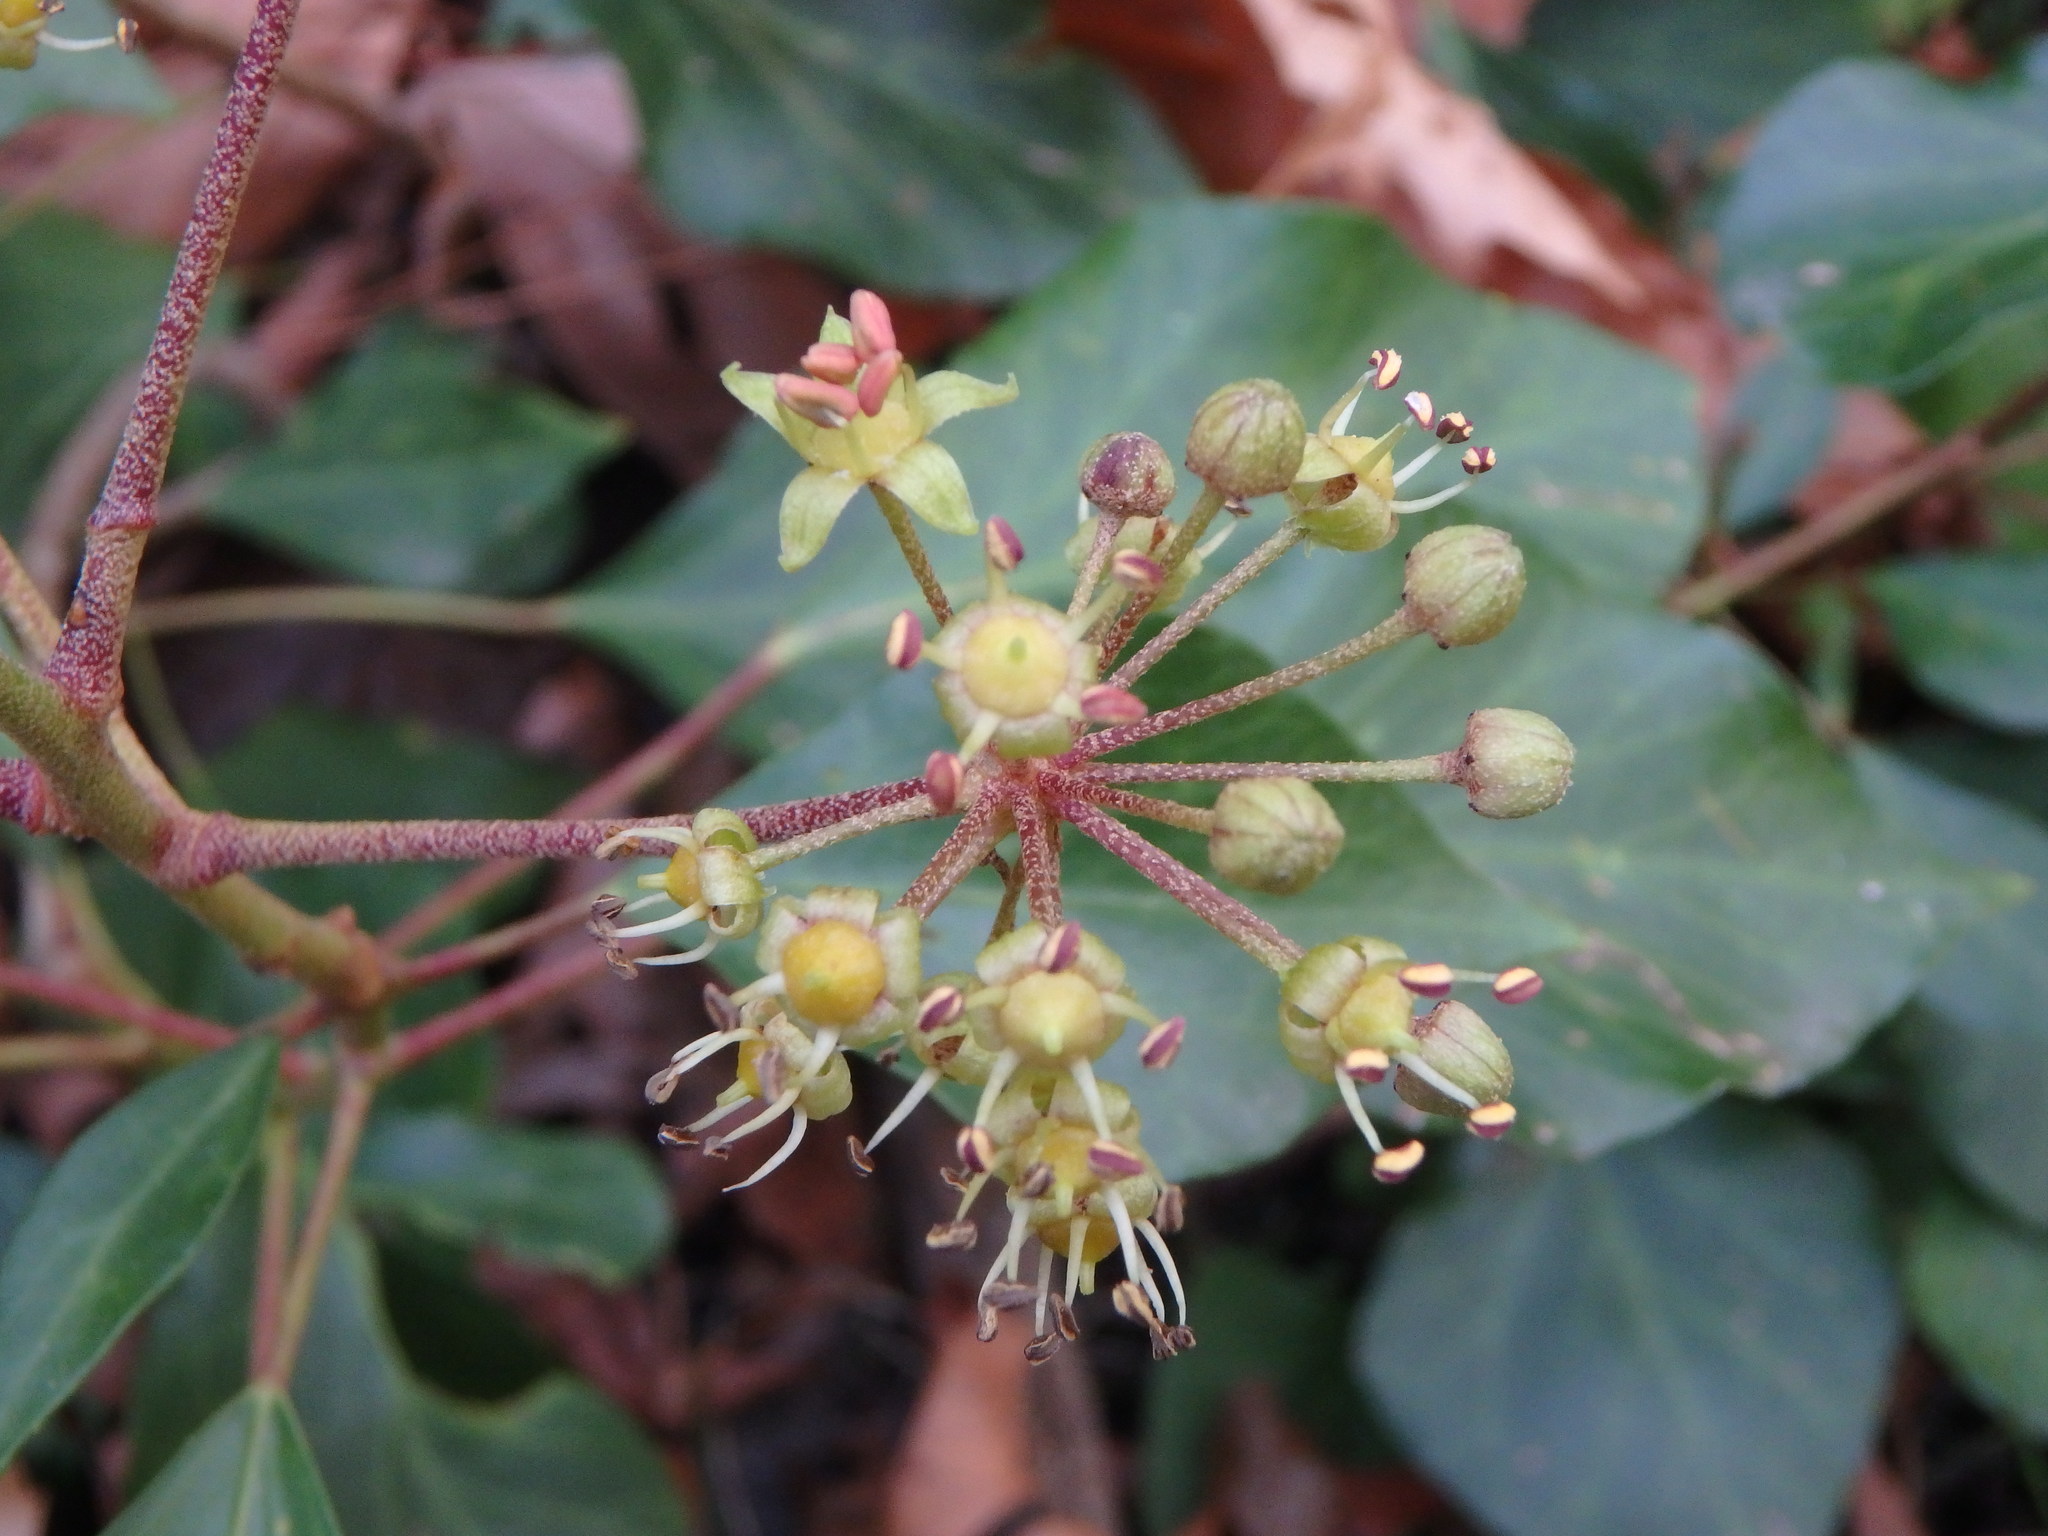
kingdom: Plantae
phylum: Tracheophyta
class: Magnoliopsida
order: Apiales
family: Araliaceae
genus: Hedera
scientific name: Hedera helix
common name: Ivy
